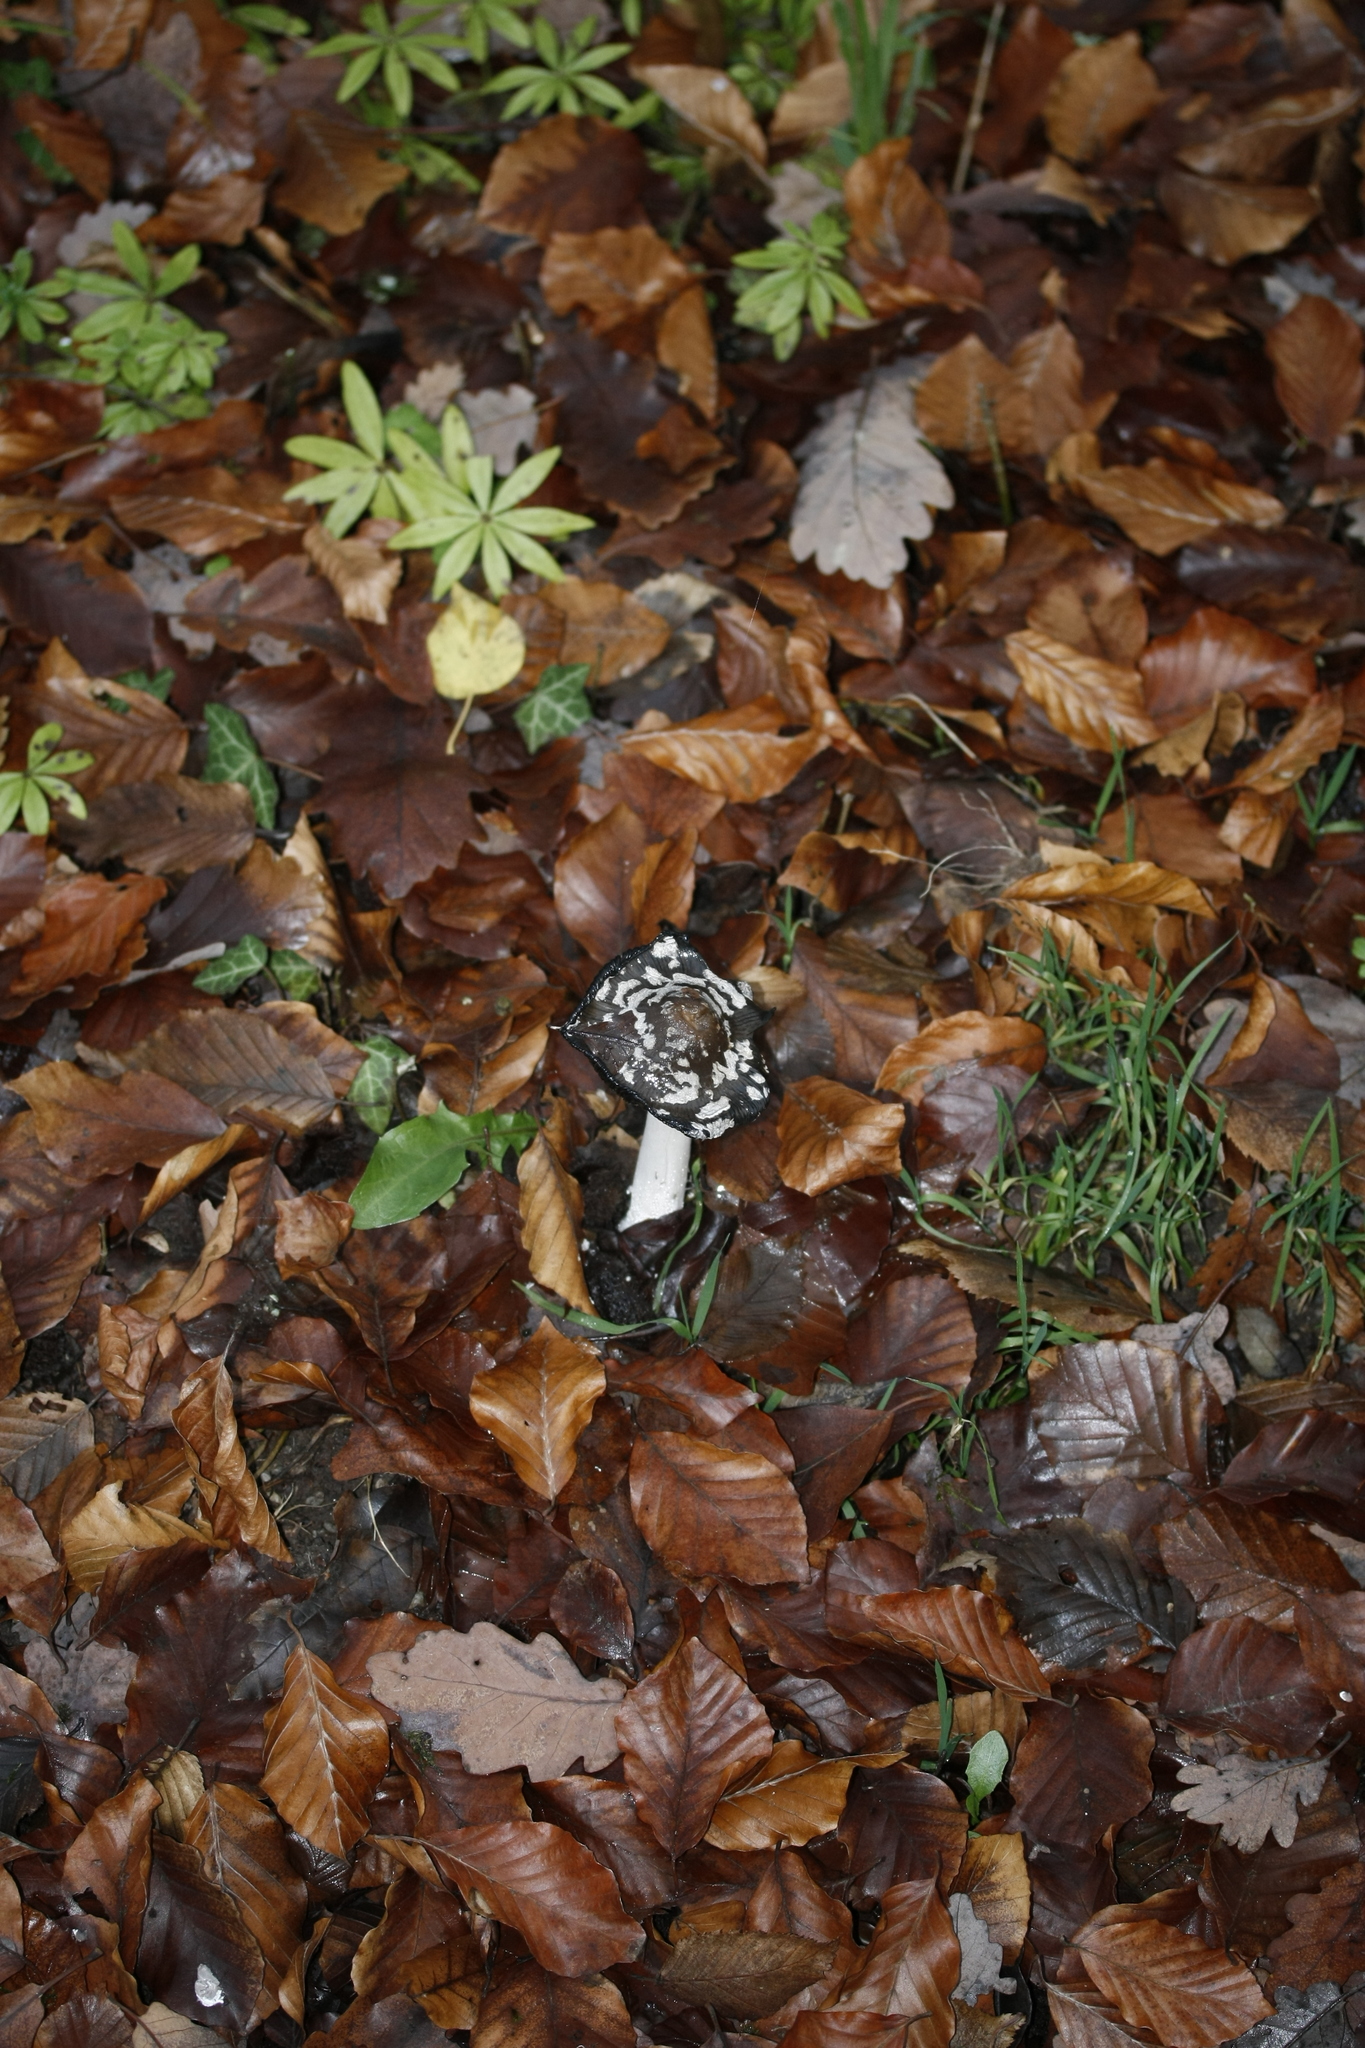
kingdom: Fungi
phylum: Basidiomycota
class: Agaricomycetes
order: Agaricales
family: Psathyrellaceae
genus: Coprinopsis
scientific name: Coprinopsis picacea
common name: Magpie inkcap
